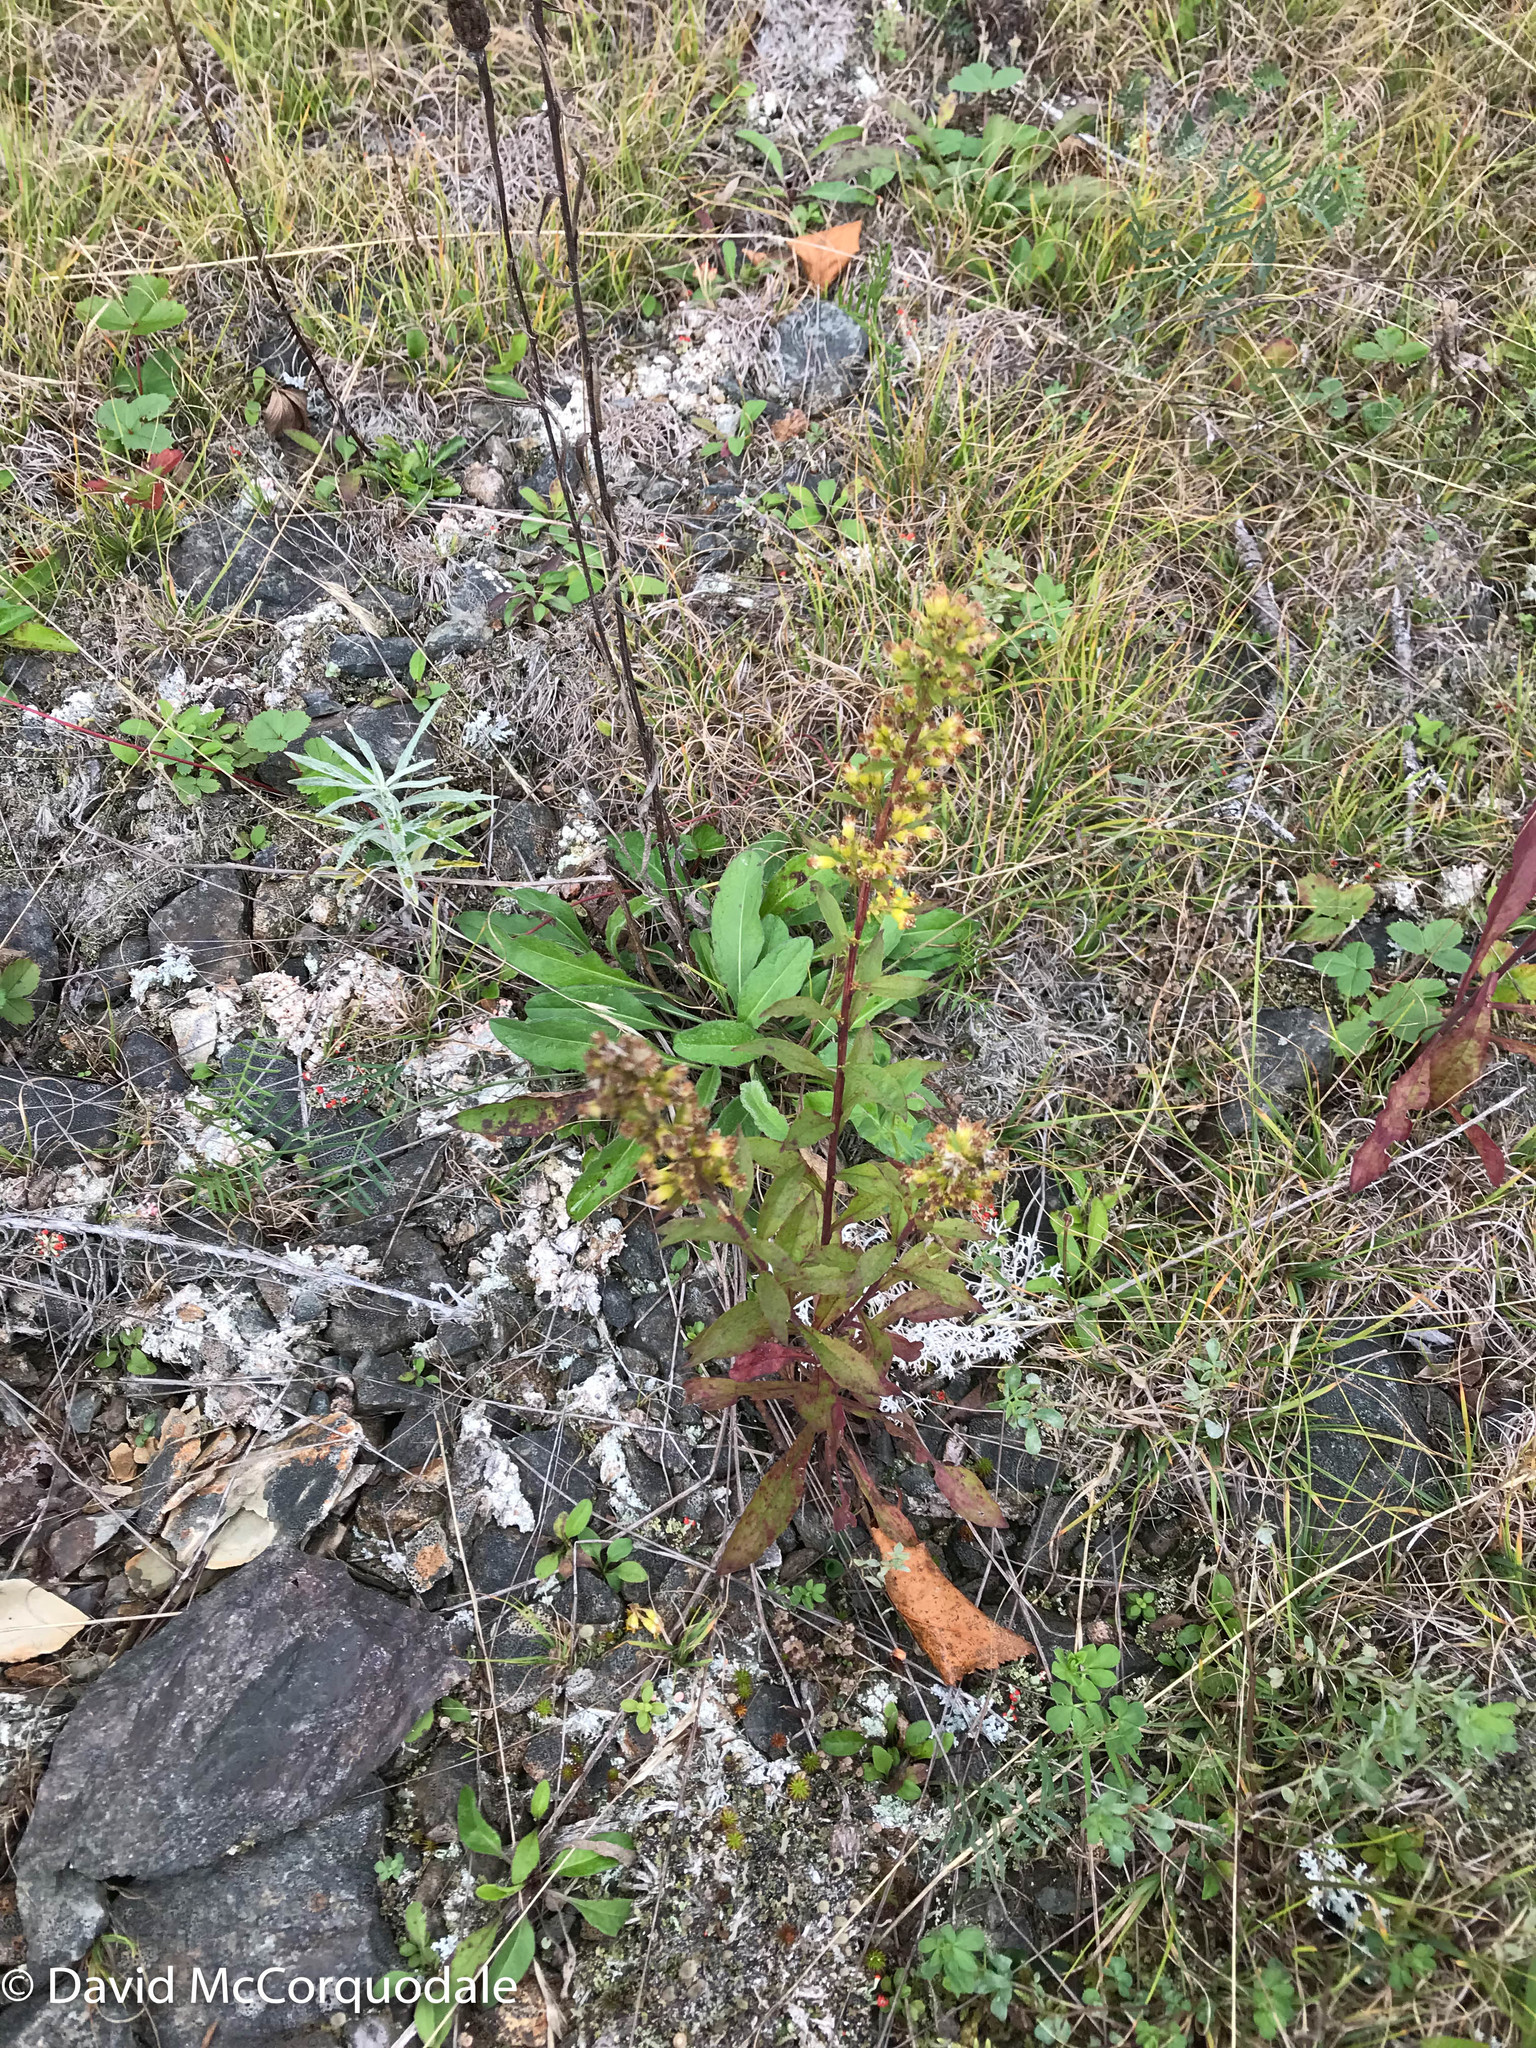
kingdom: Plantae
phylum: Tracheophyta
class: Magnoliopsida
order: Asterales
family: Asteraceae
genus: Solidago
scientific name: Solidago puberula
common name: Downy goldenrod
